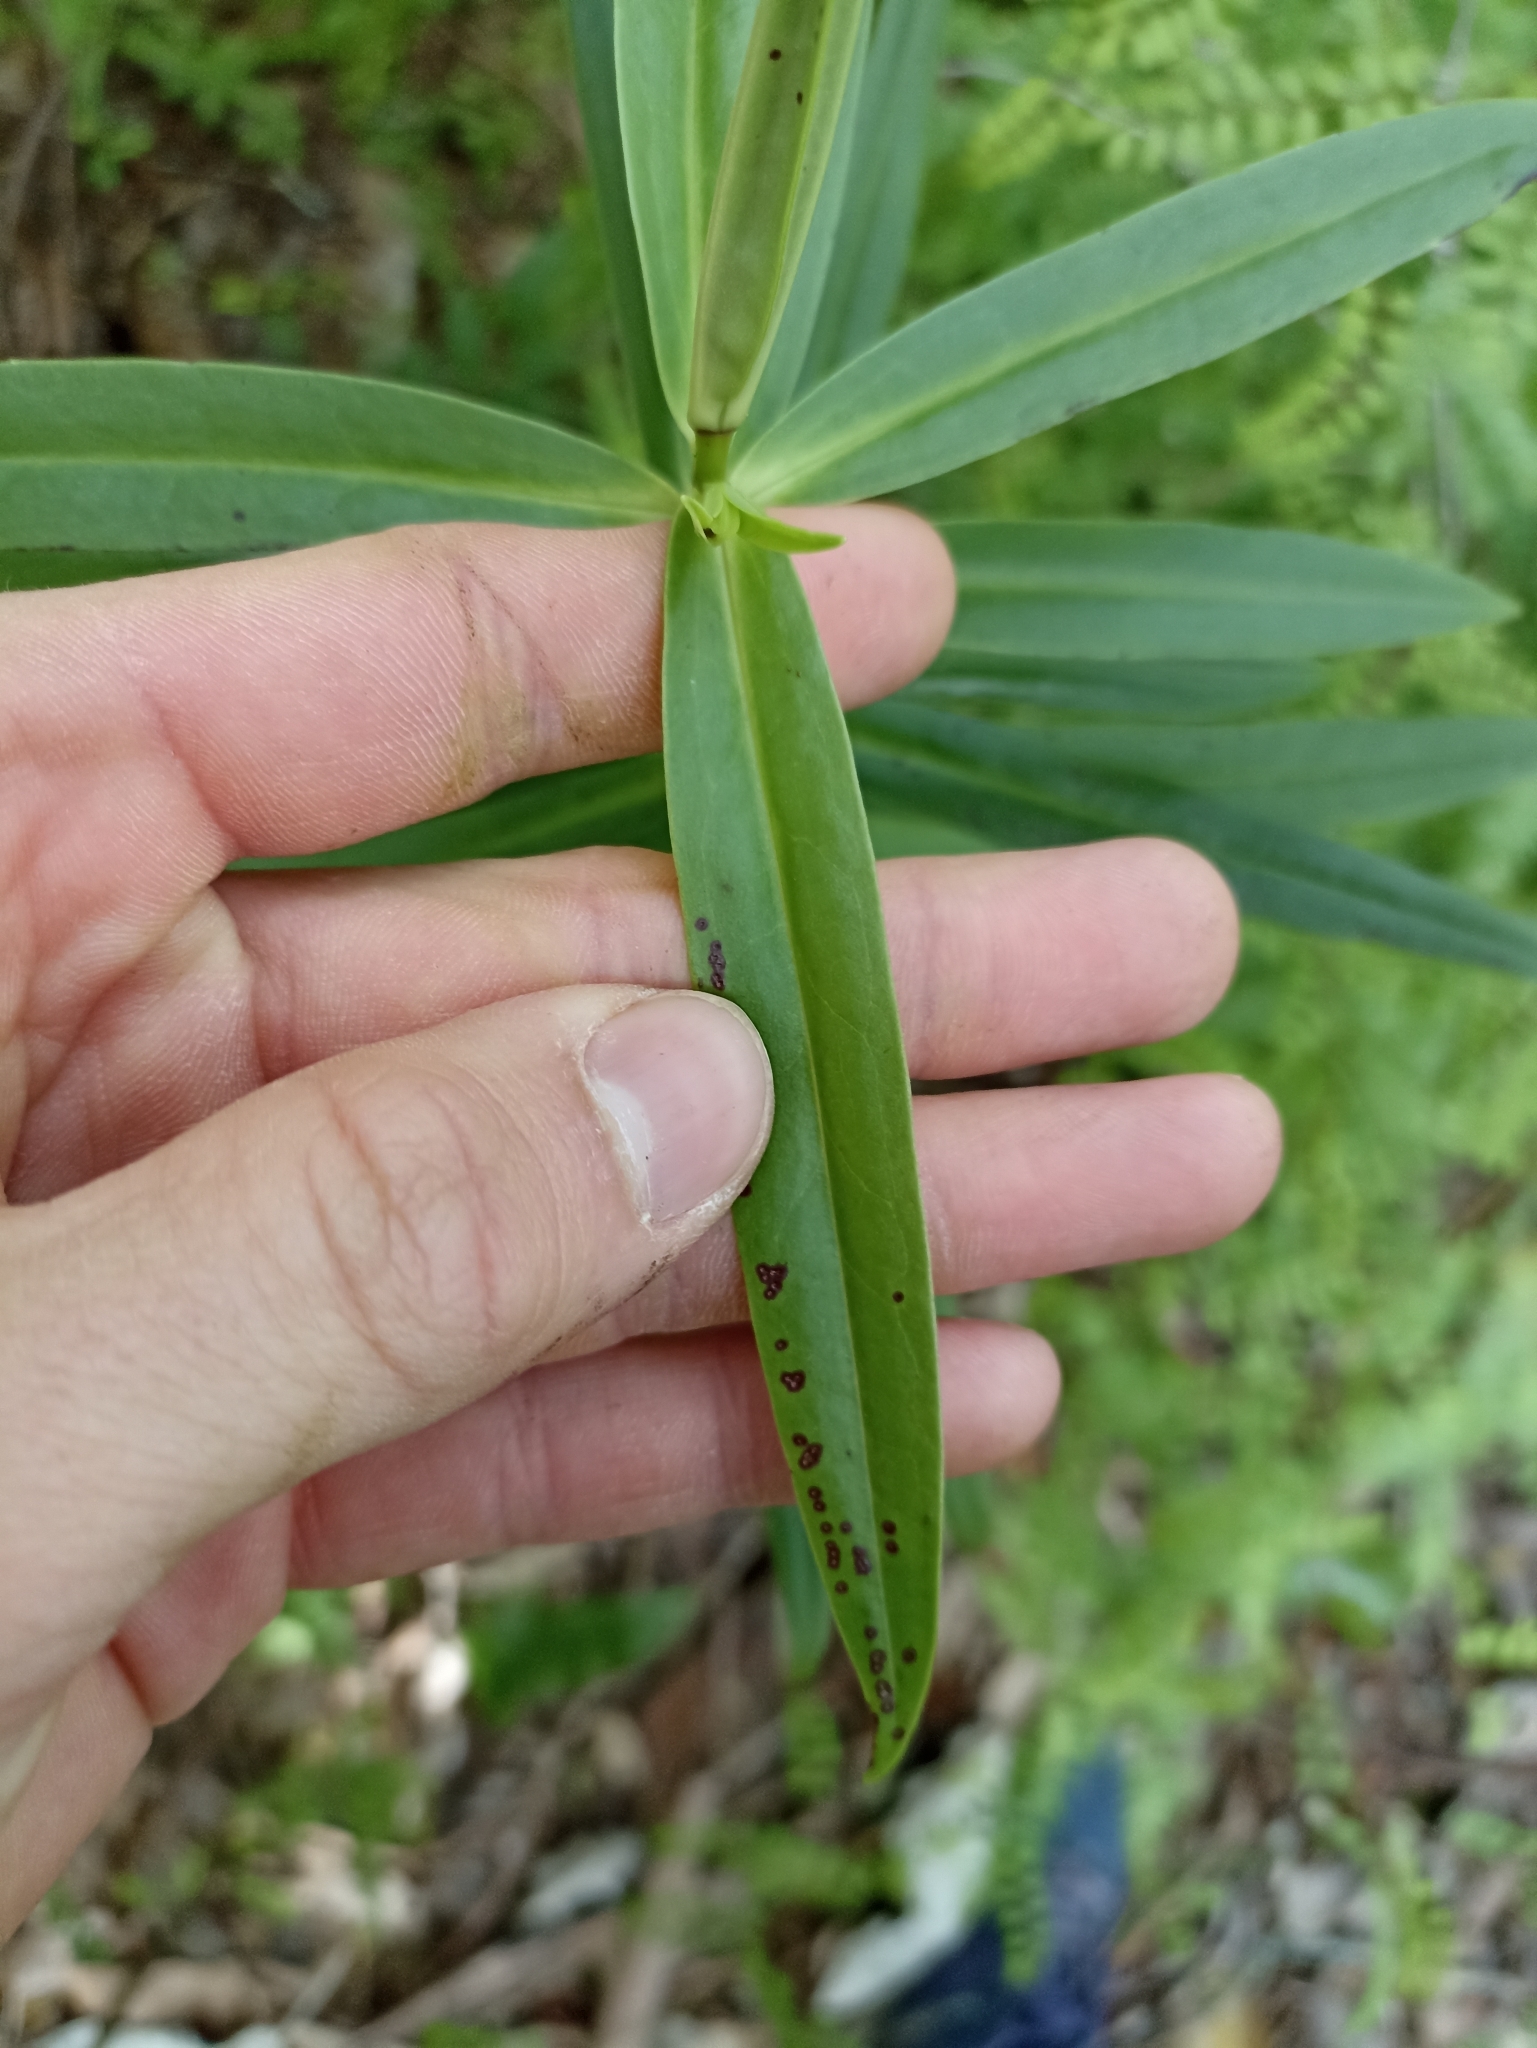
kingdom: Plantae
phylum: Tracheophyta
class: Magnoliopsida
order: Lamiales
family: Plantaginaceae
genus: Veronica
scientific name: Veronica macrocarpa
